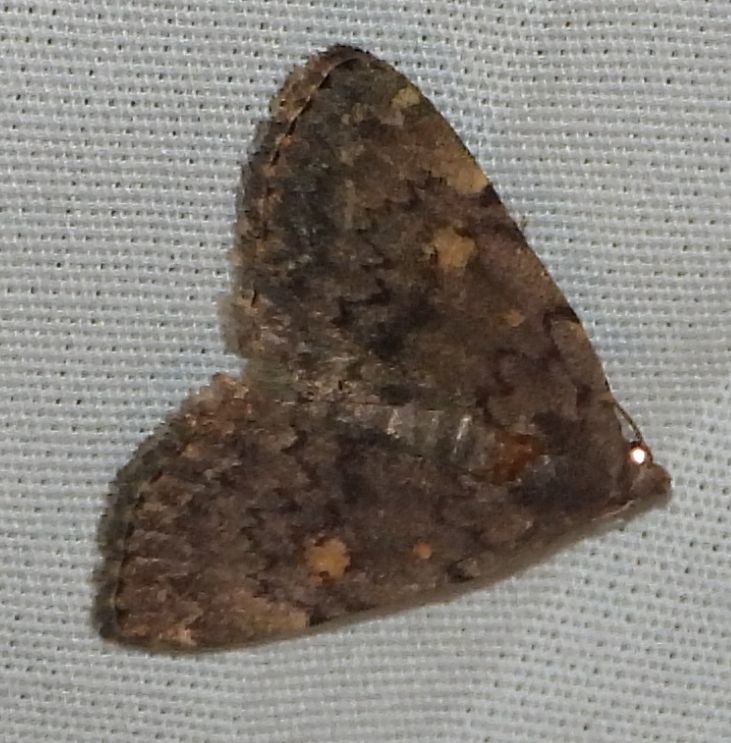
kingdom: Animalia
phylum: Arthropoda
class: Insecta
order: Lepidoptera
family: Erebidae
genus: Idia
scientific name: Idia aemula
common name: Common idia moth
